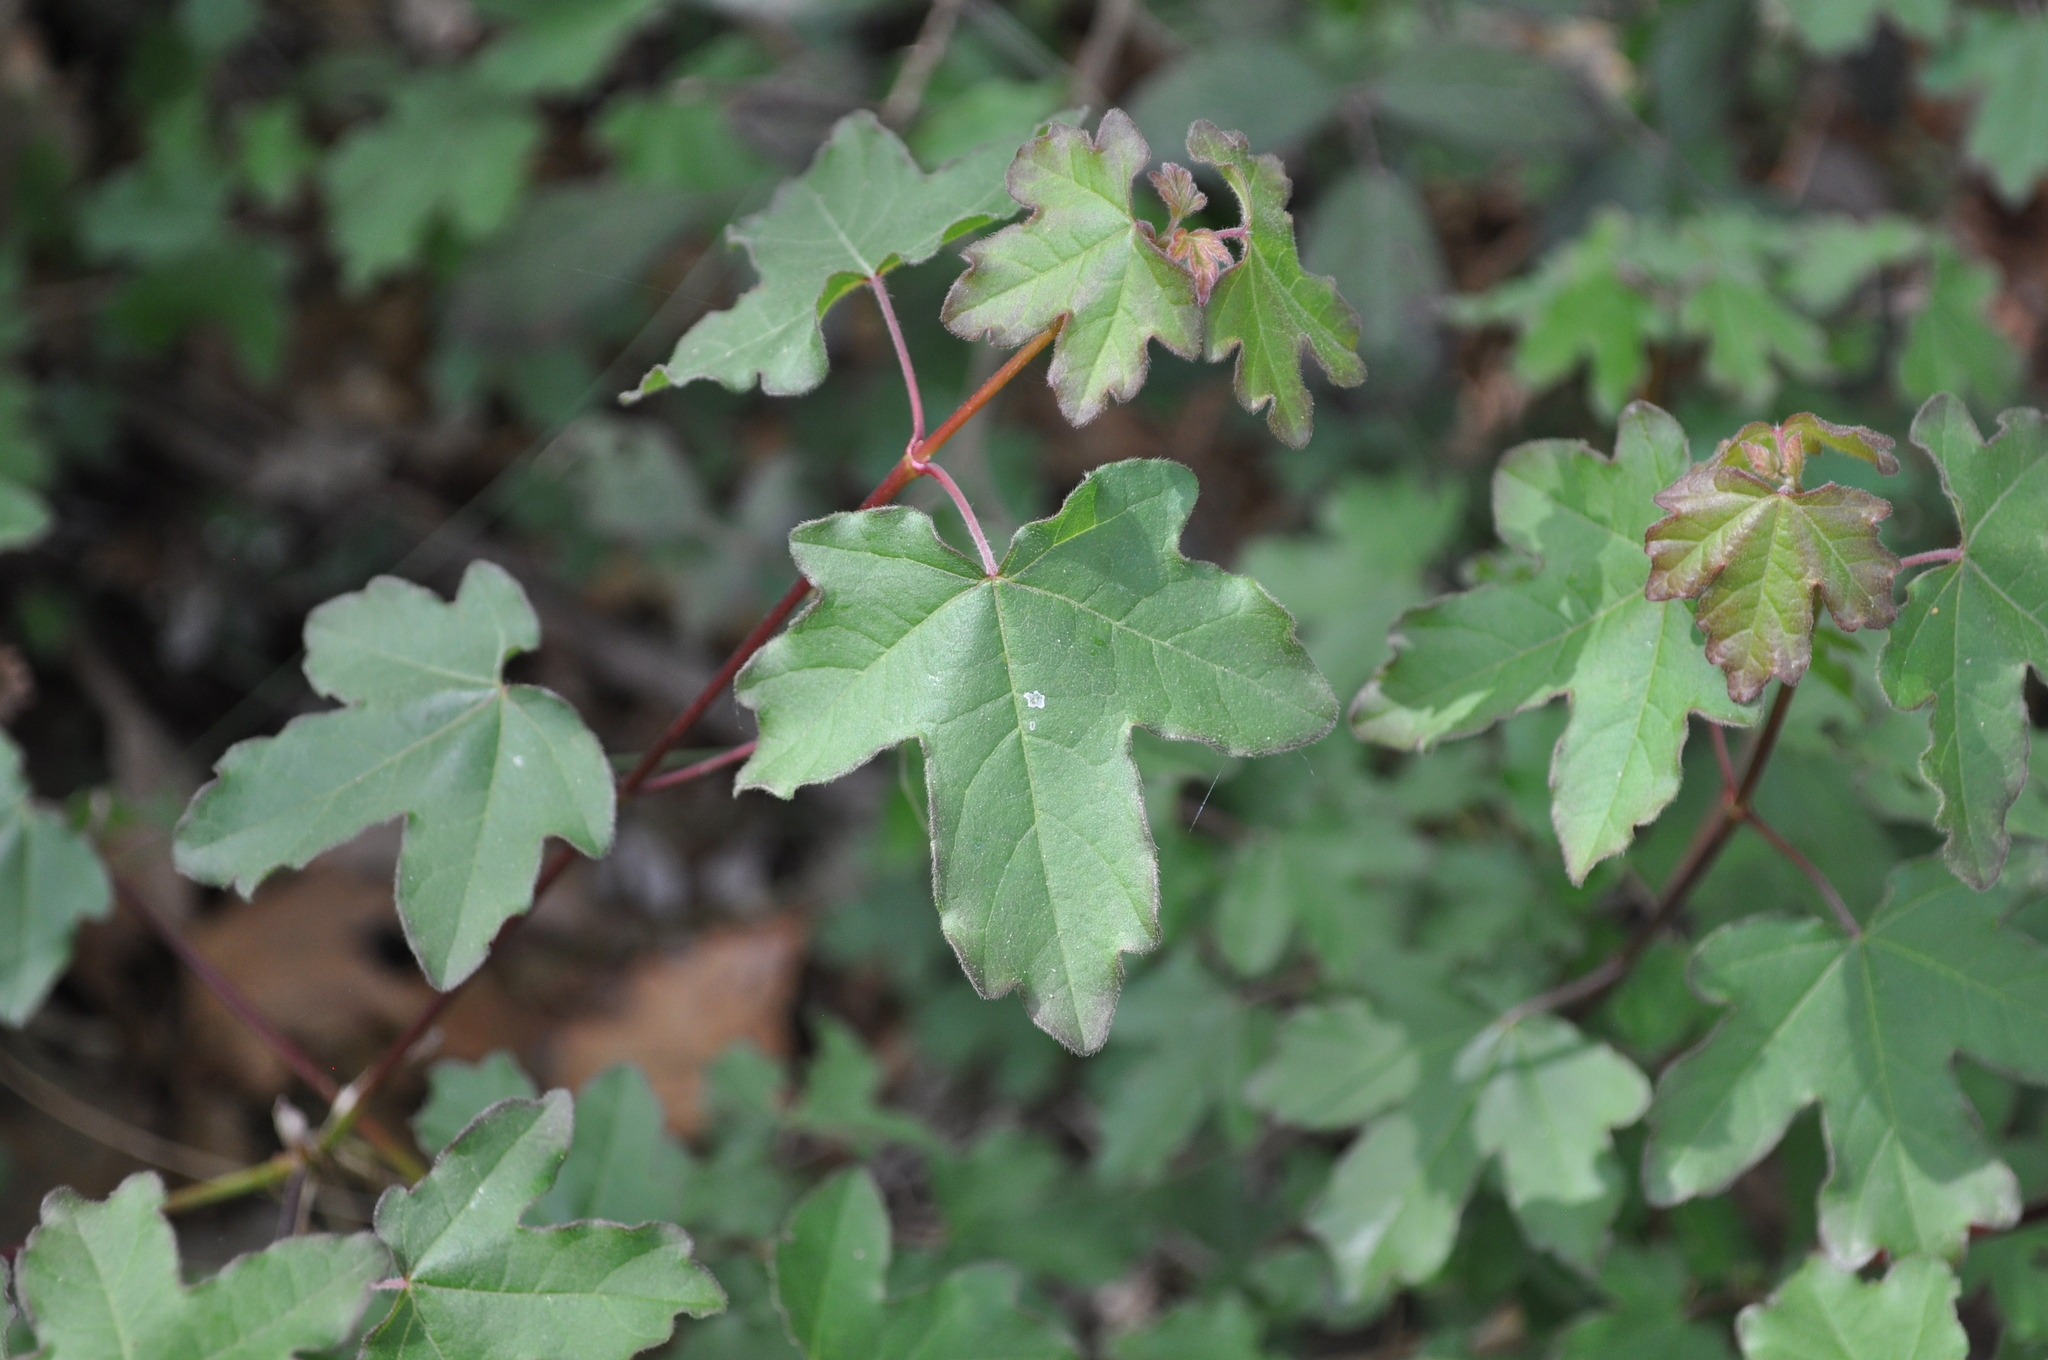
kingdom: Plantae
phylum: Tracheophyta
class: Magnoliopsida
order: Sapindales
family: Sapindaceae
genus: Acer
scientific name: Acer campestre
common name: Field maple
